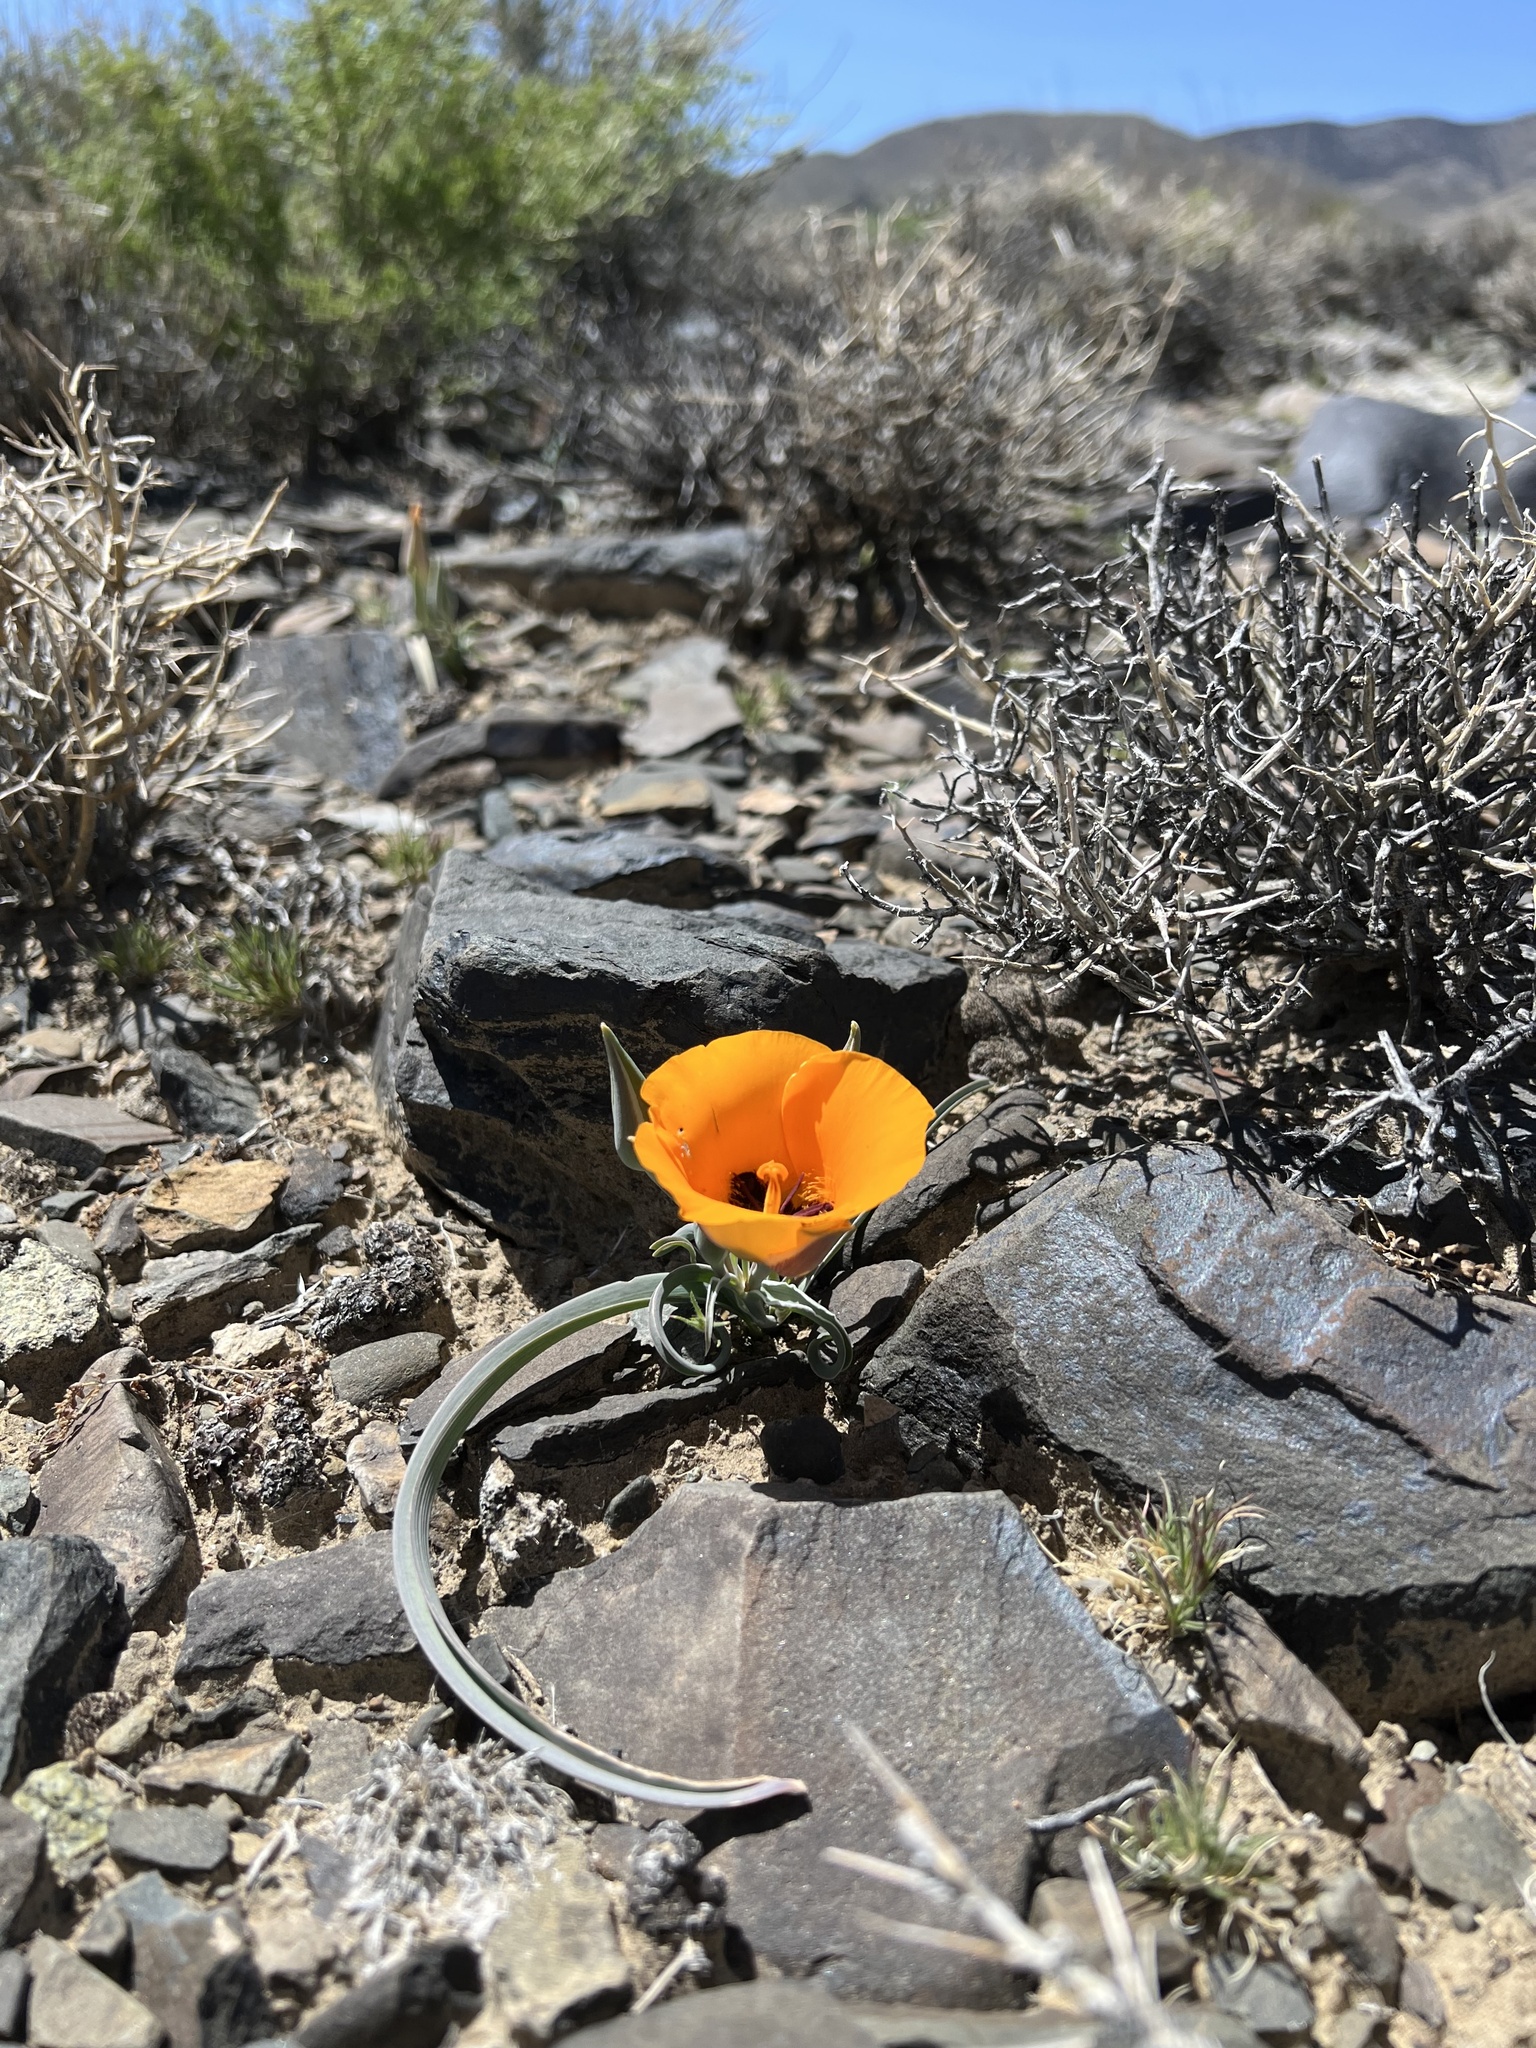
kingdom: Plantae
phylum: Tracheophyta
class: Liliopsida
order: Liliales
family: Liliaceae
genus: Calochortus
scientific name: Calochortus kennedyi
